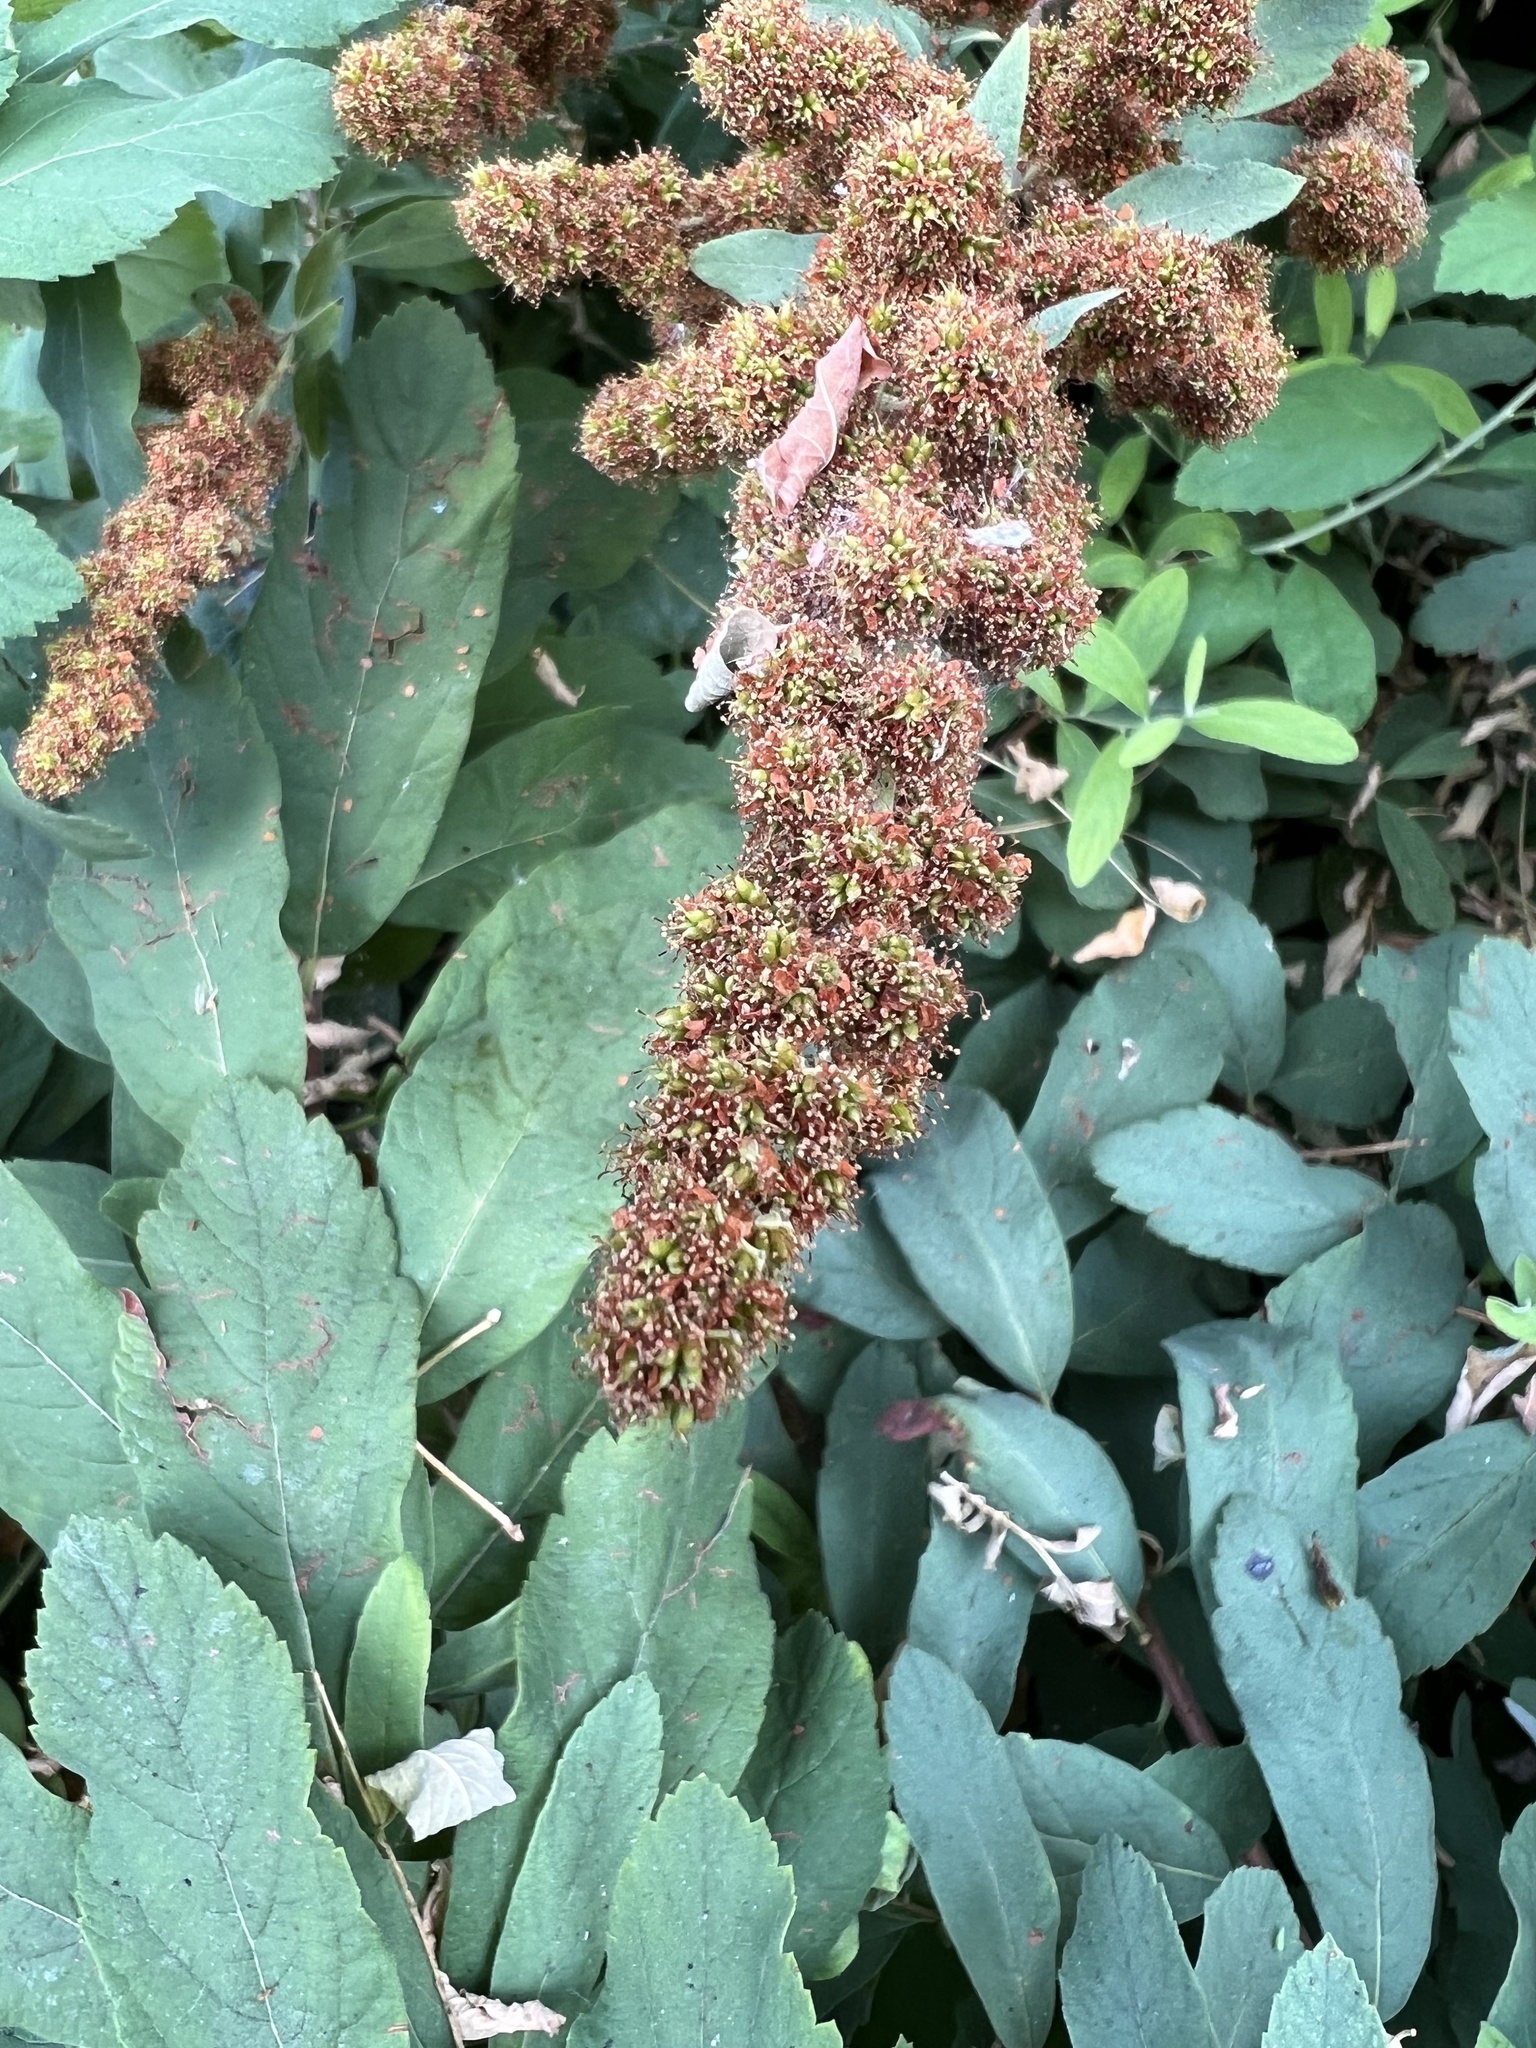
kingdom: Plantae
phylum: Tracheophyta
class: Magnoliopsida
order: Rosales
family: Rosaceae
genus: Spiraea
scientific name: Spiraea douglasii
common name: Steeplebush
